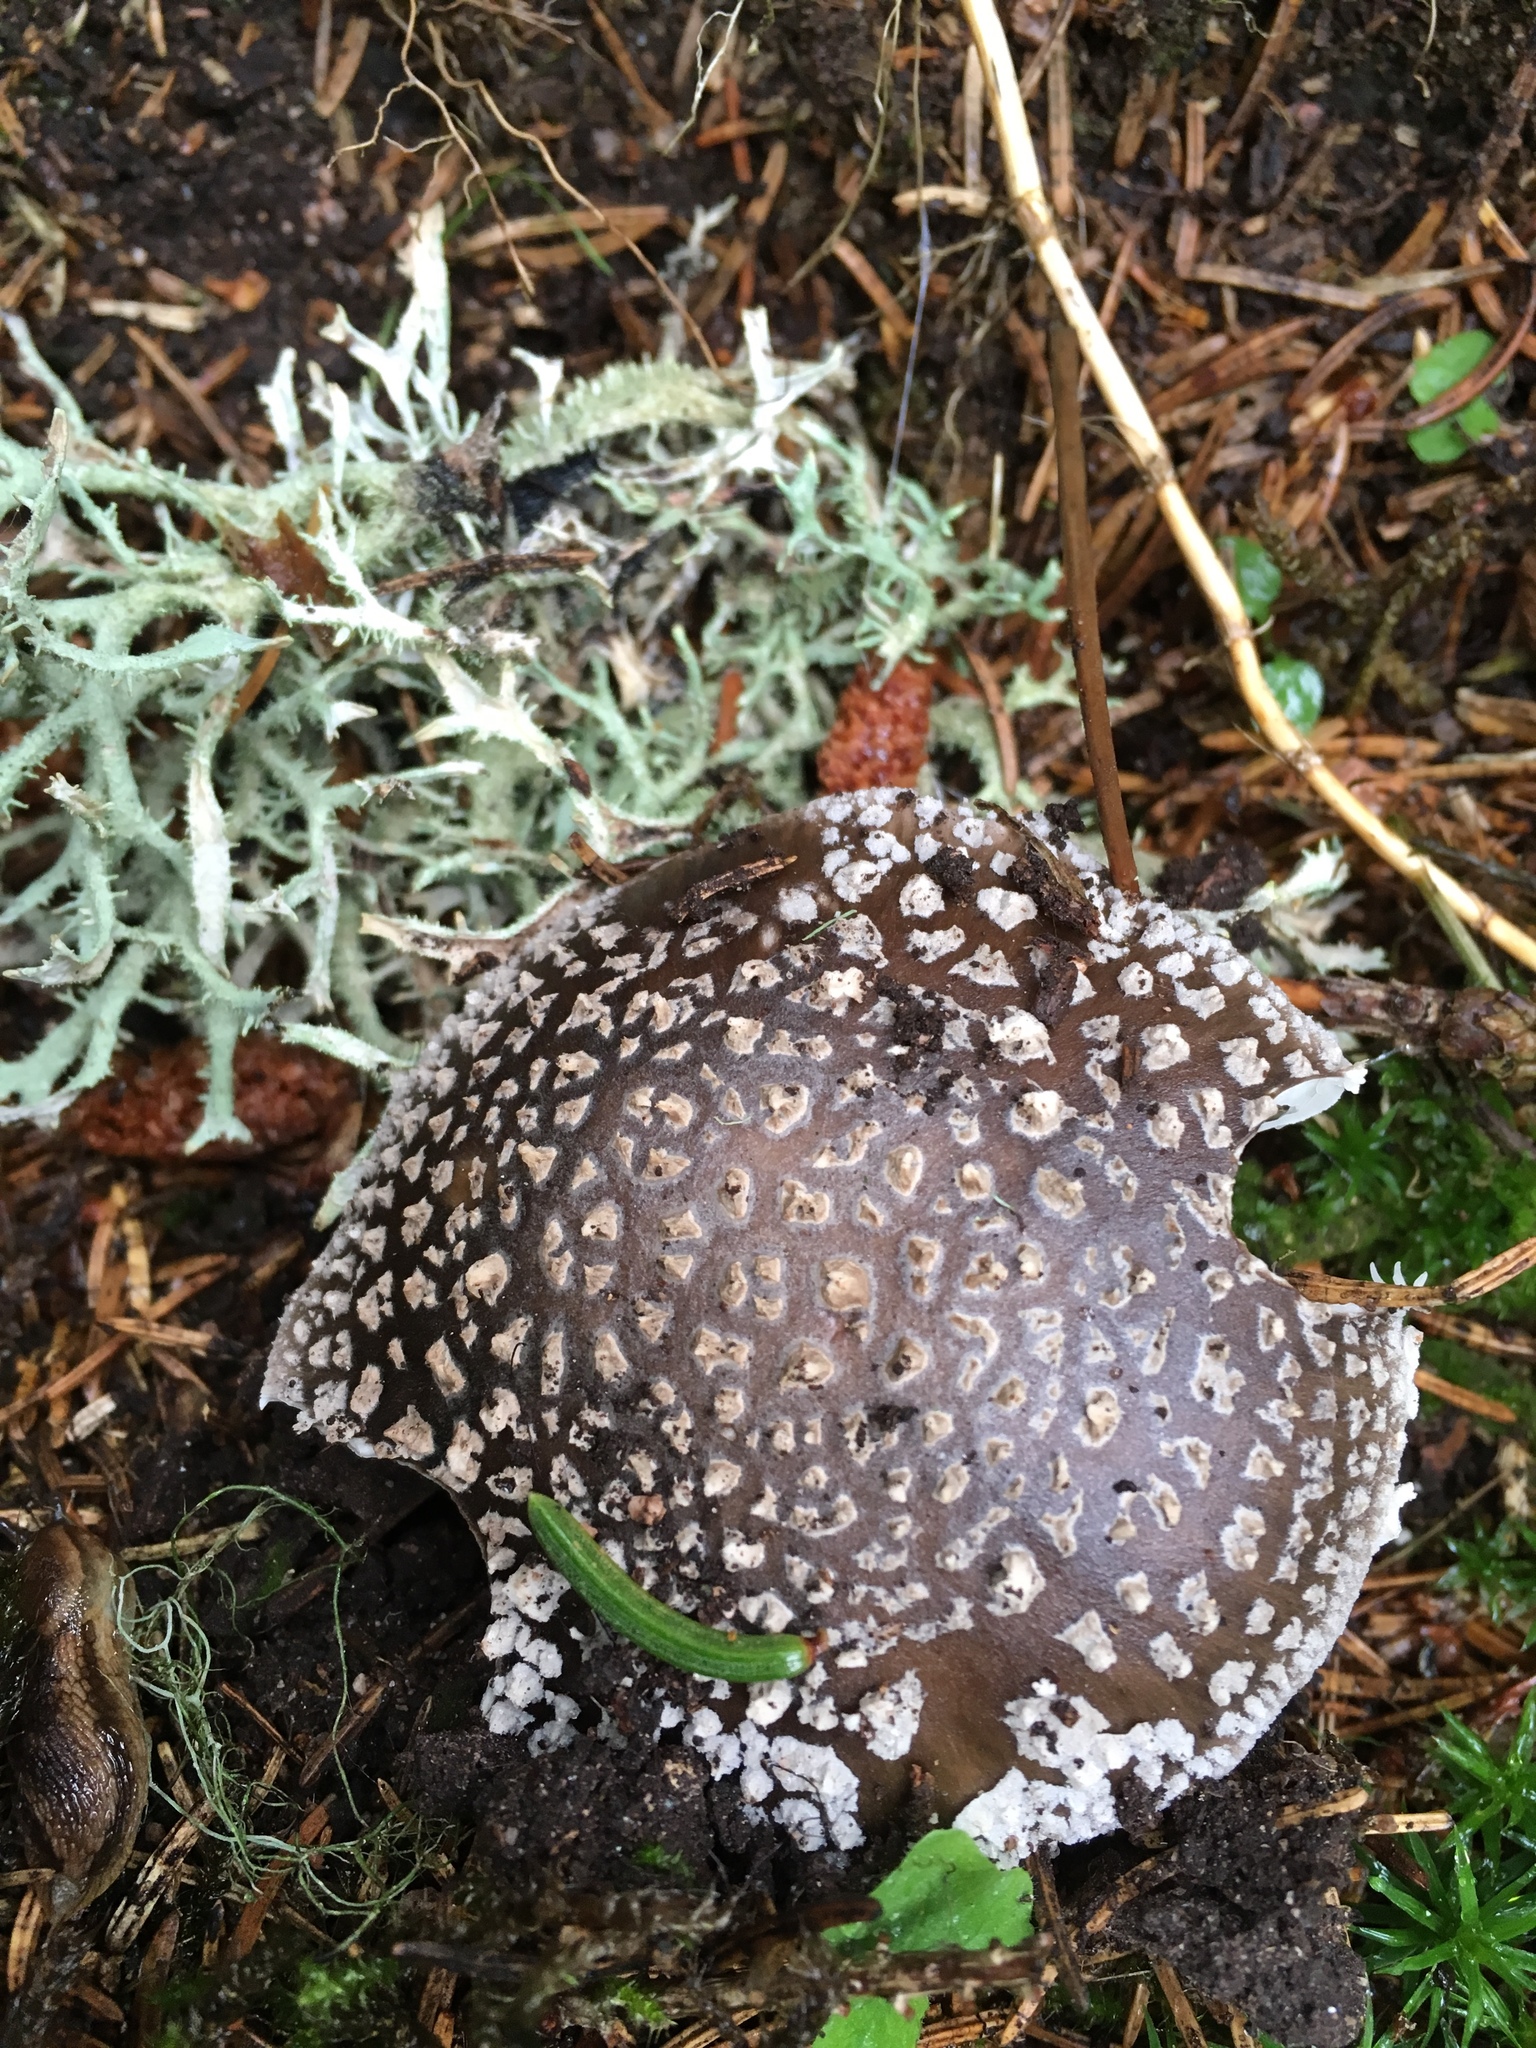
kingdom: Fungi
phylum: Basidiomycota
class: Agaricomycetes
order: Agaricales
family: Amanitaceae
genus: Amanita
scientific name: Amanita excelsa
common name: European false blusher
